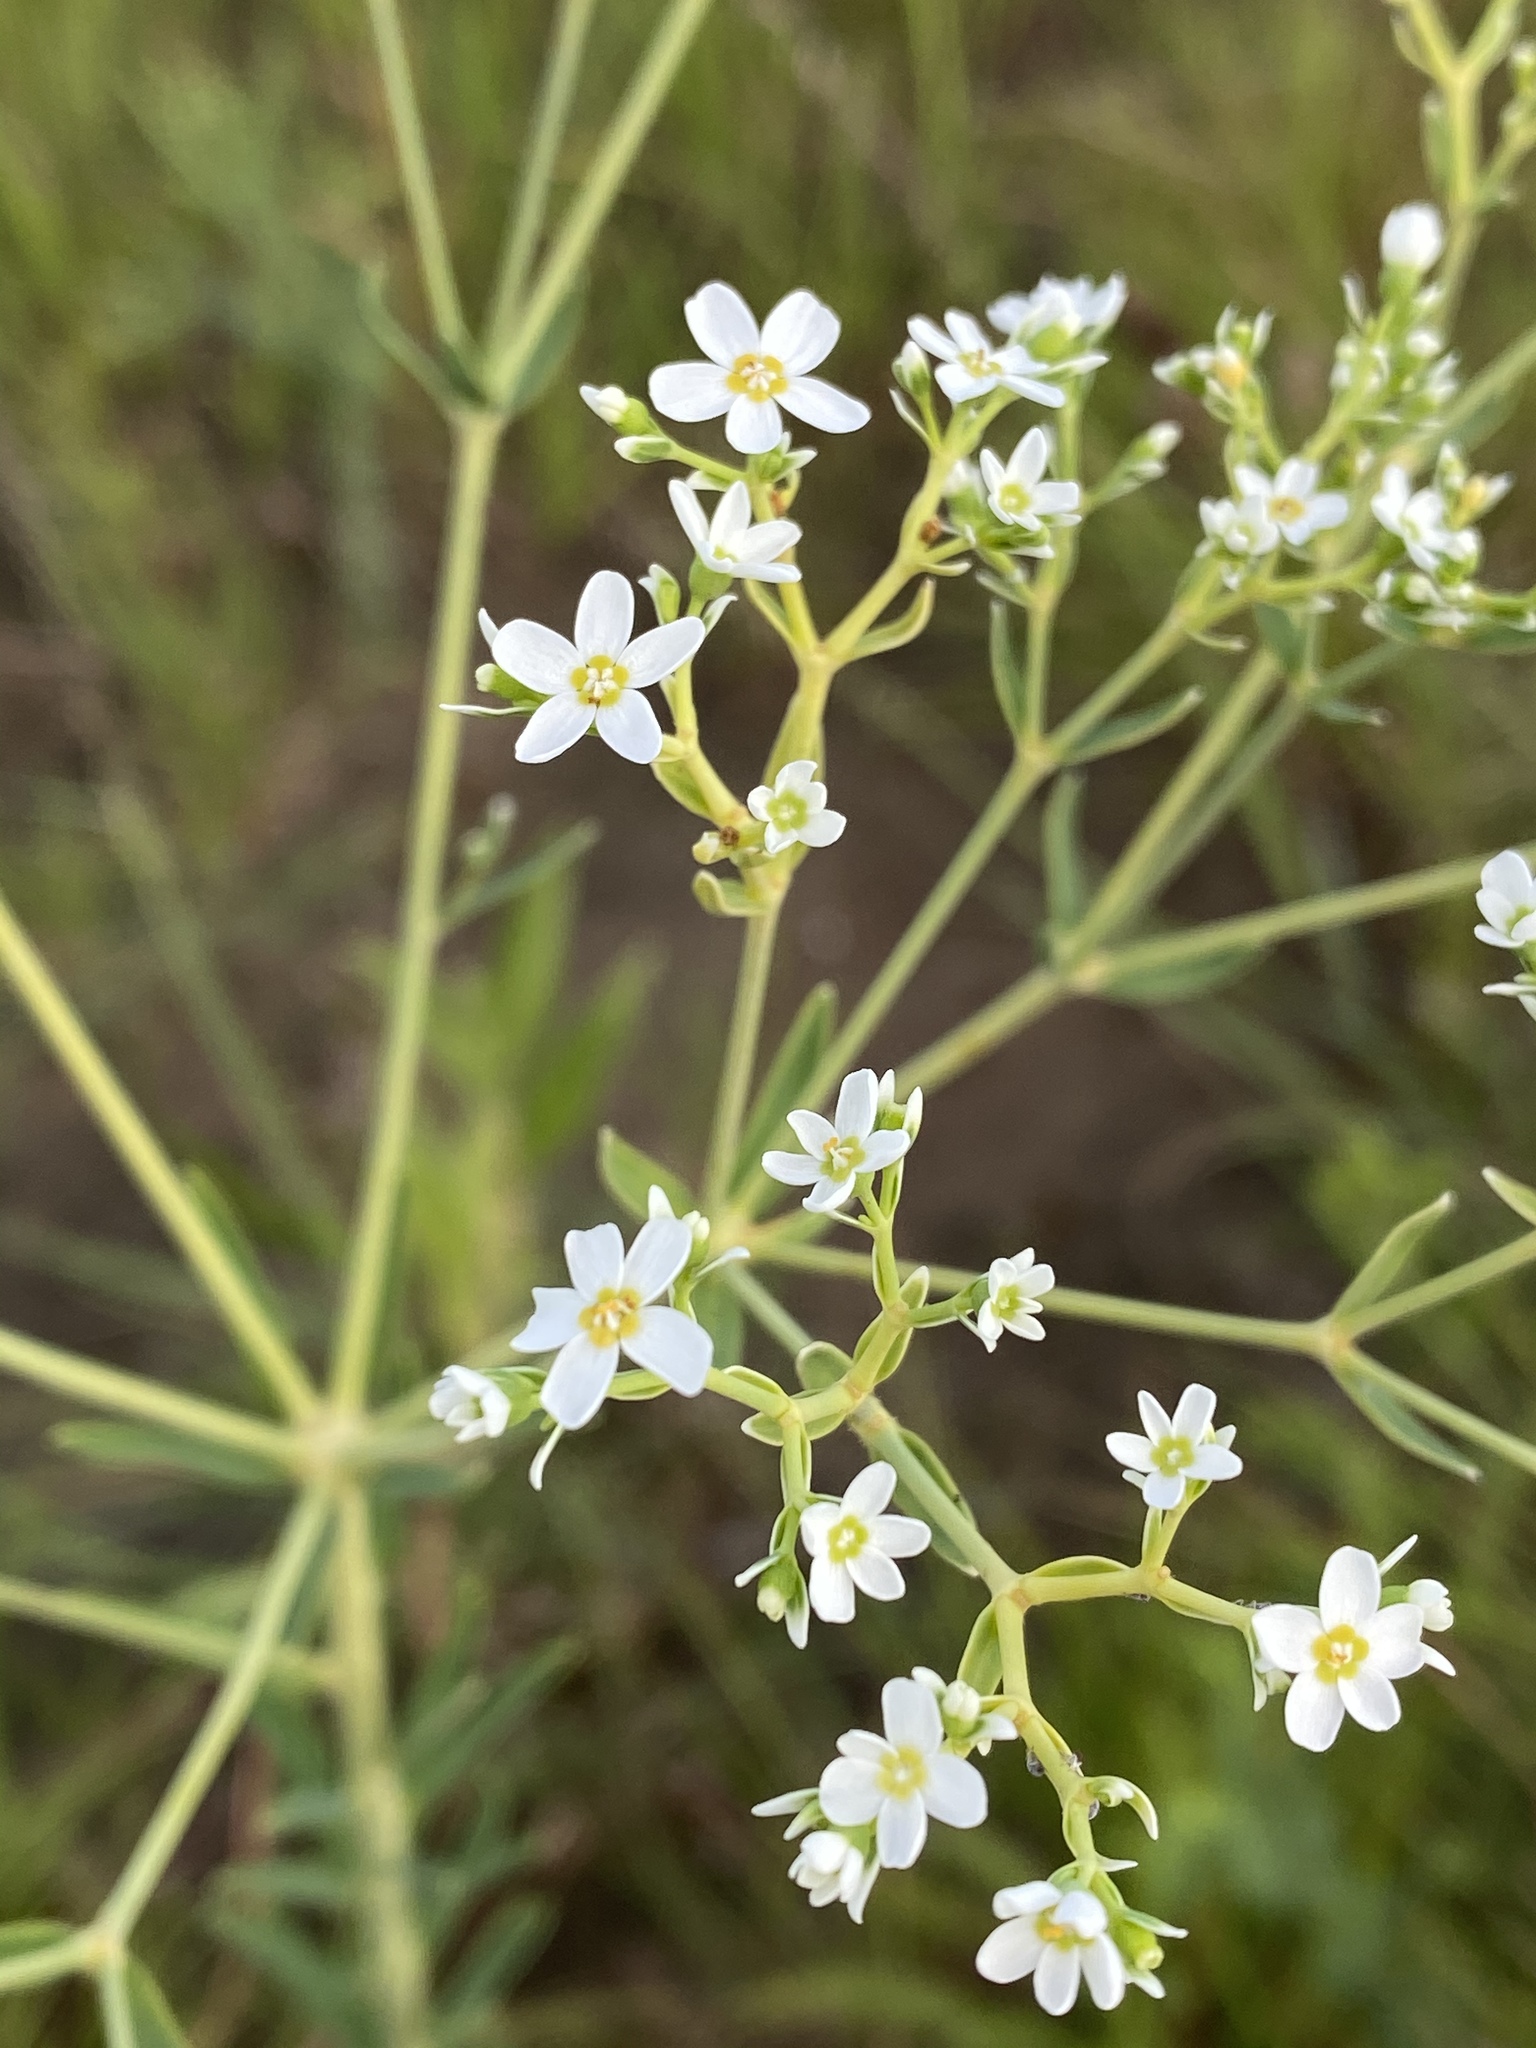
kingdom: Plantae
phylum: Tracheophyta
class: Magnoliopsida
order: Malpighiales
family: Euphorbiaceae
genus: Euphorbia
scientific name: Euphorbia corollata
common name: Flowering spurge
